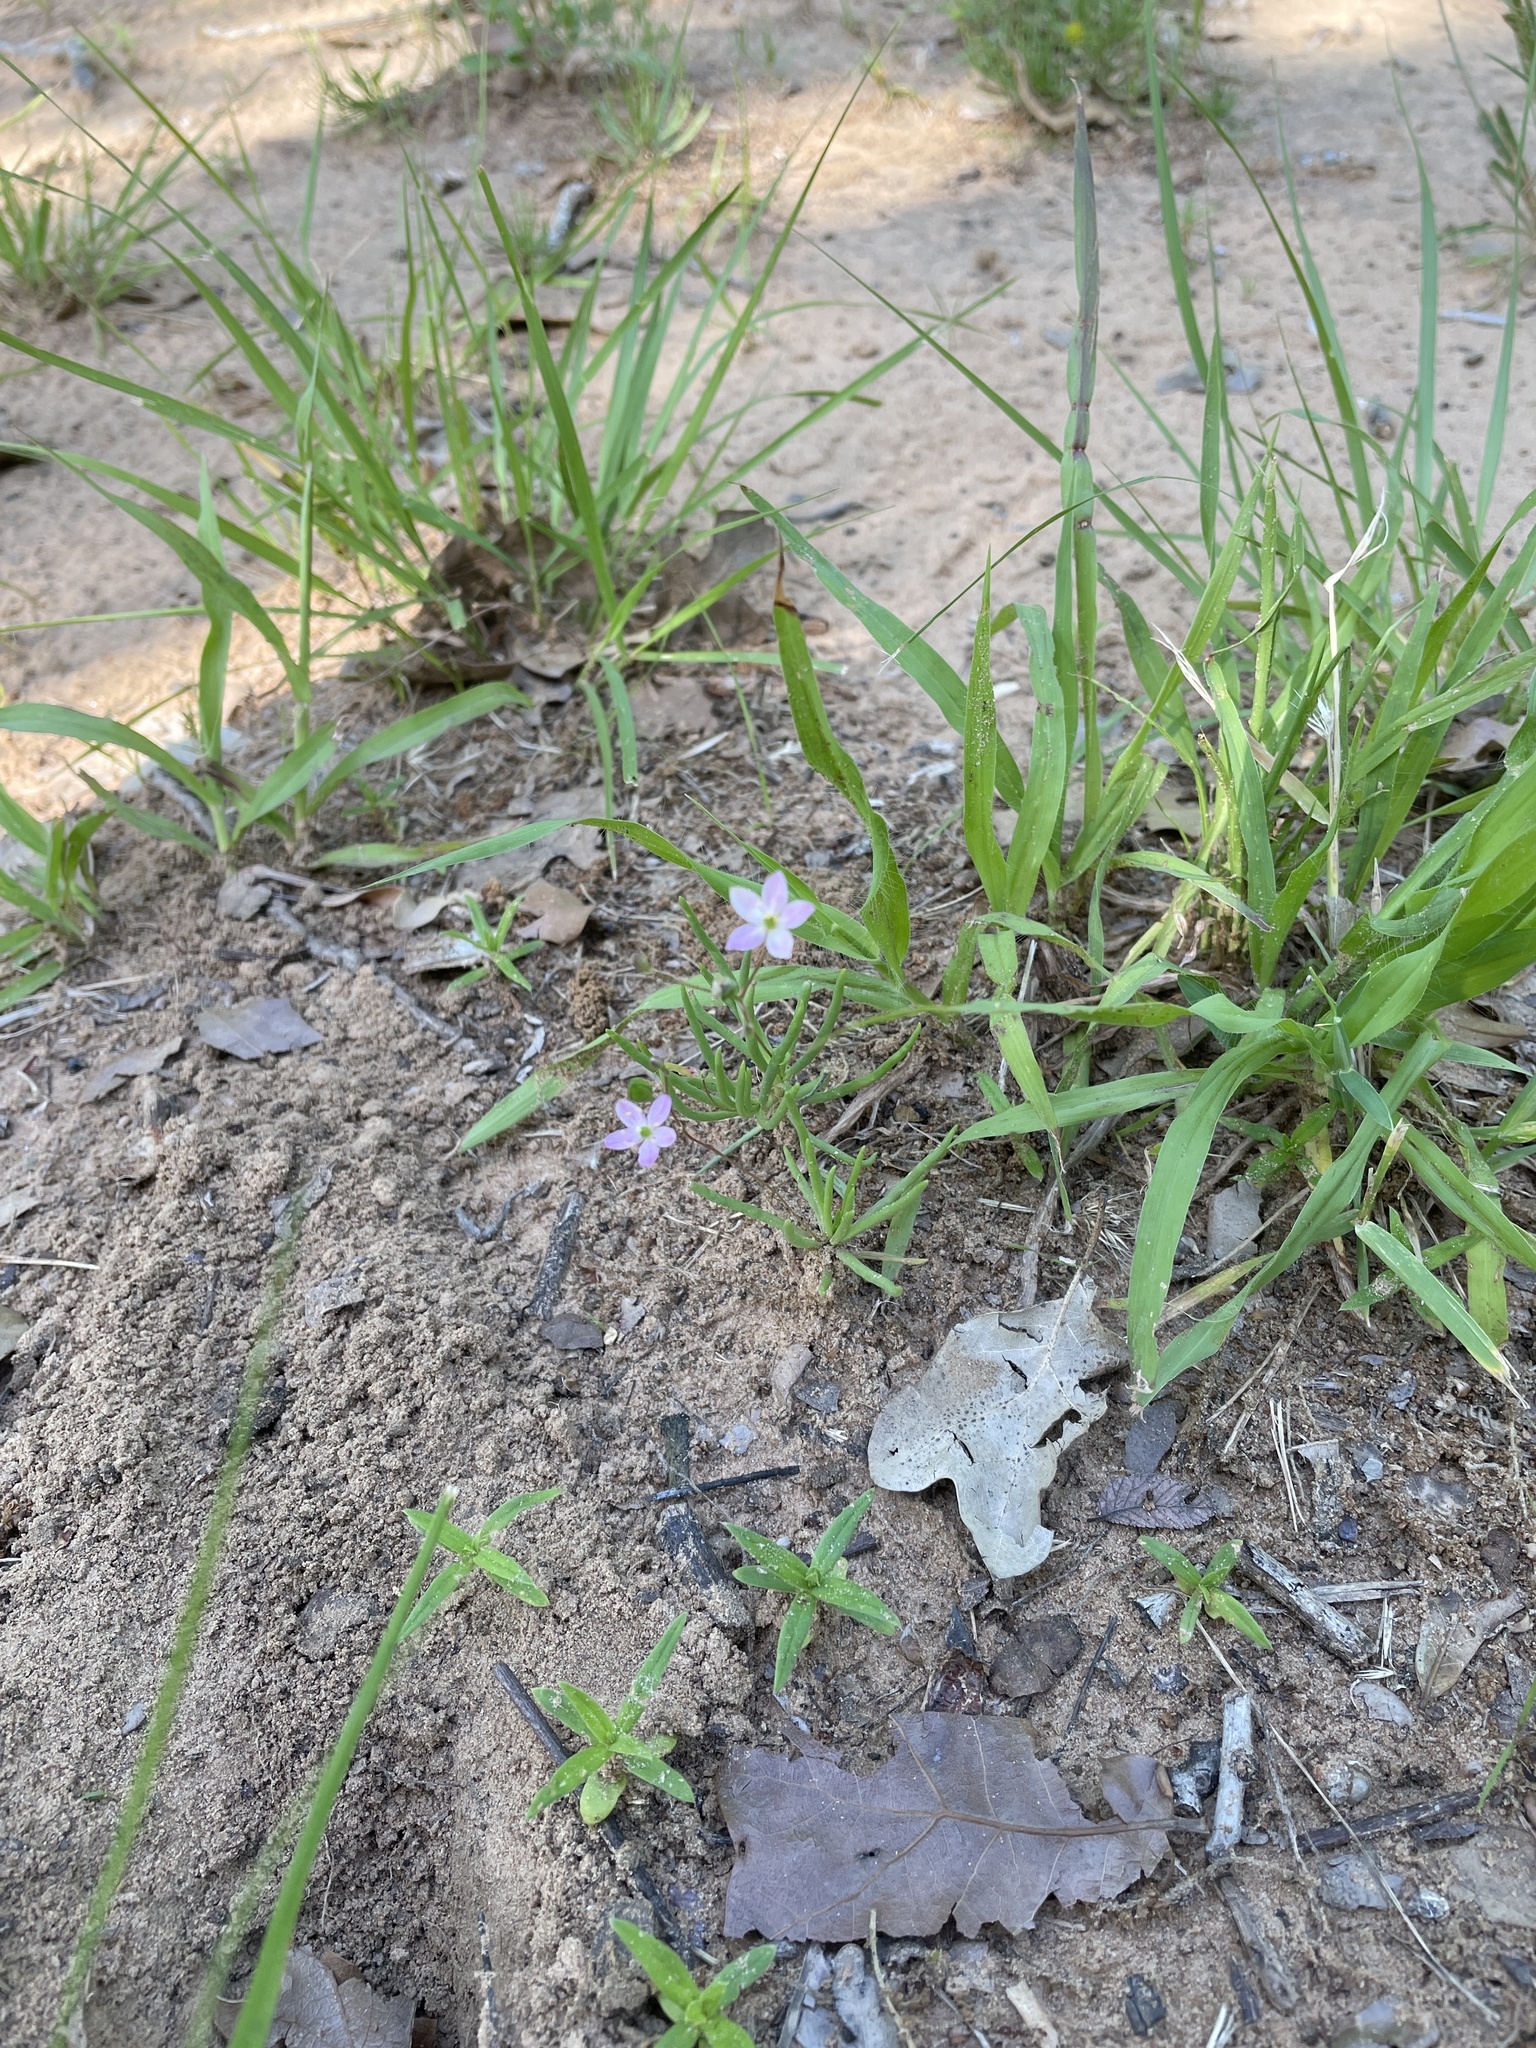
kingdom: Plantae
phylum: Tracheophyta
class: Magnoliopsida
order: Caryophyllales
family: Montiaceae
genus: Phemeranthus
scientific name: Phemeranthus parviflorus
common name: Sunbright
